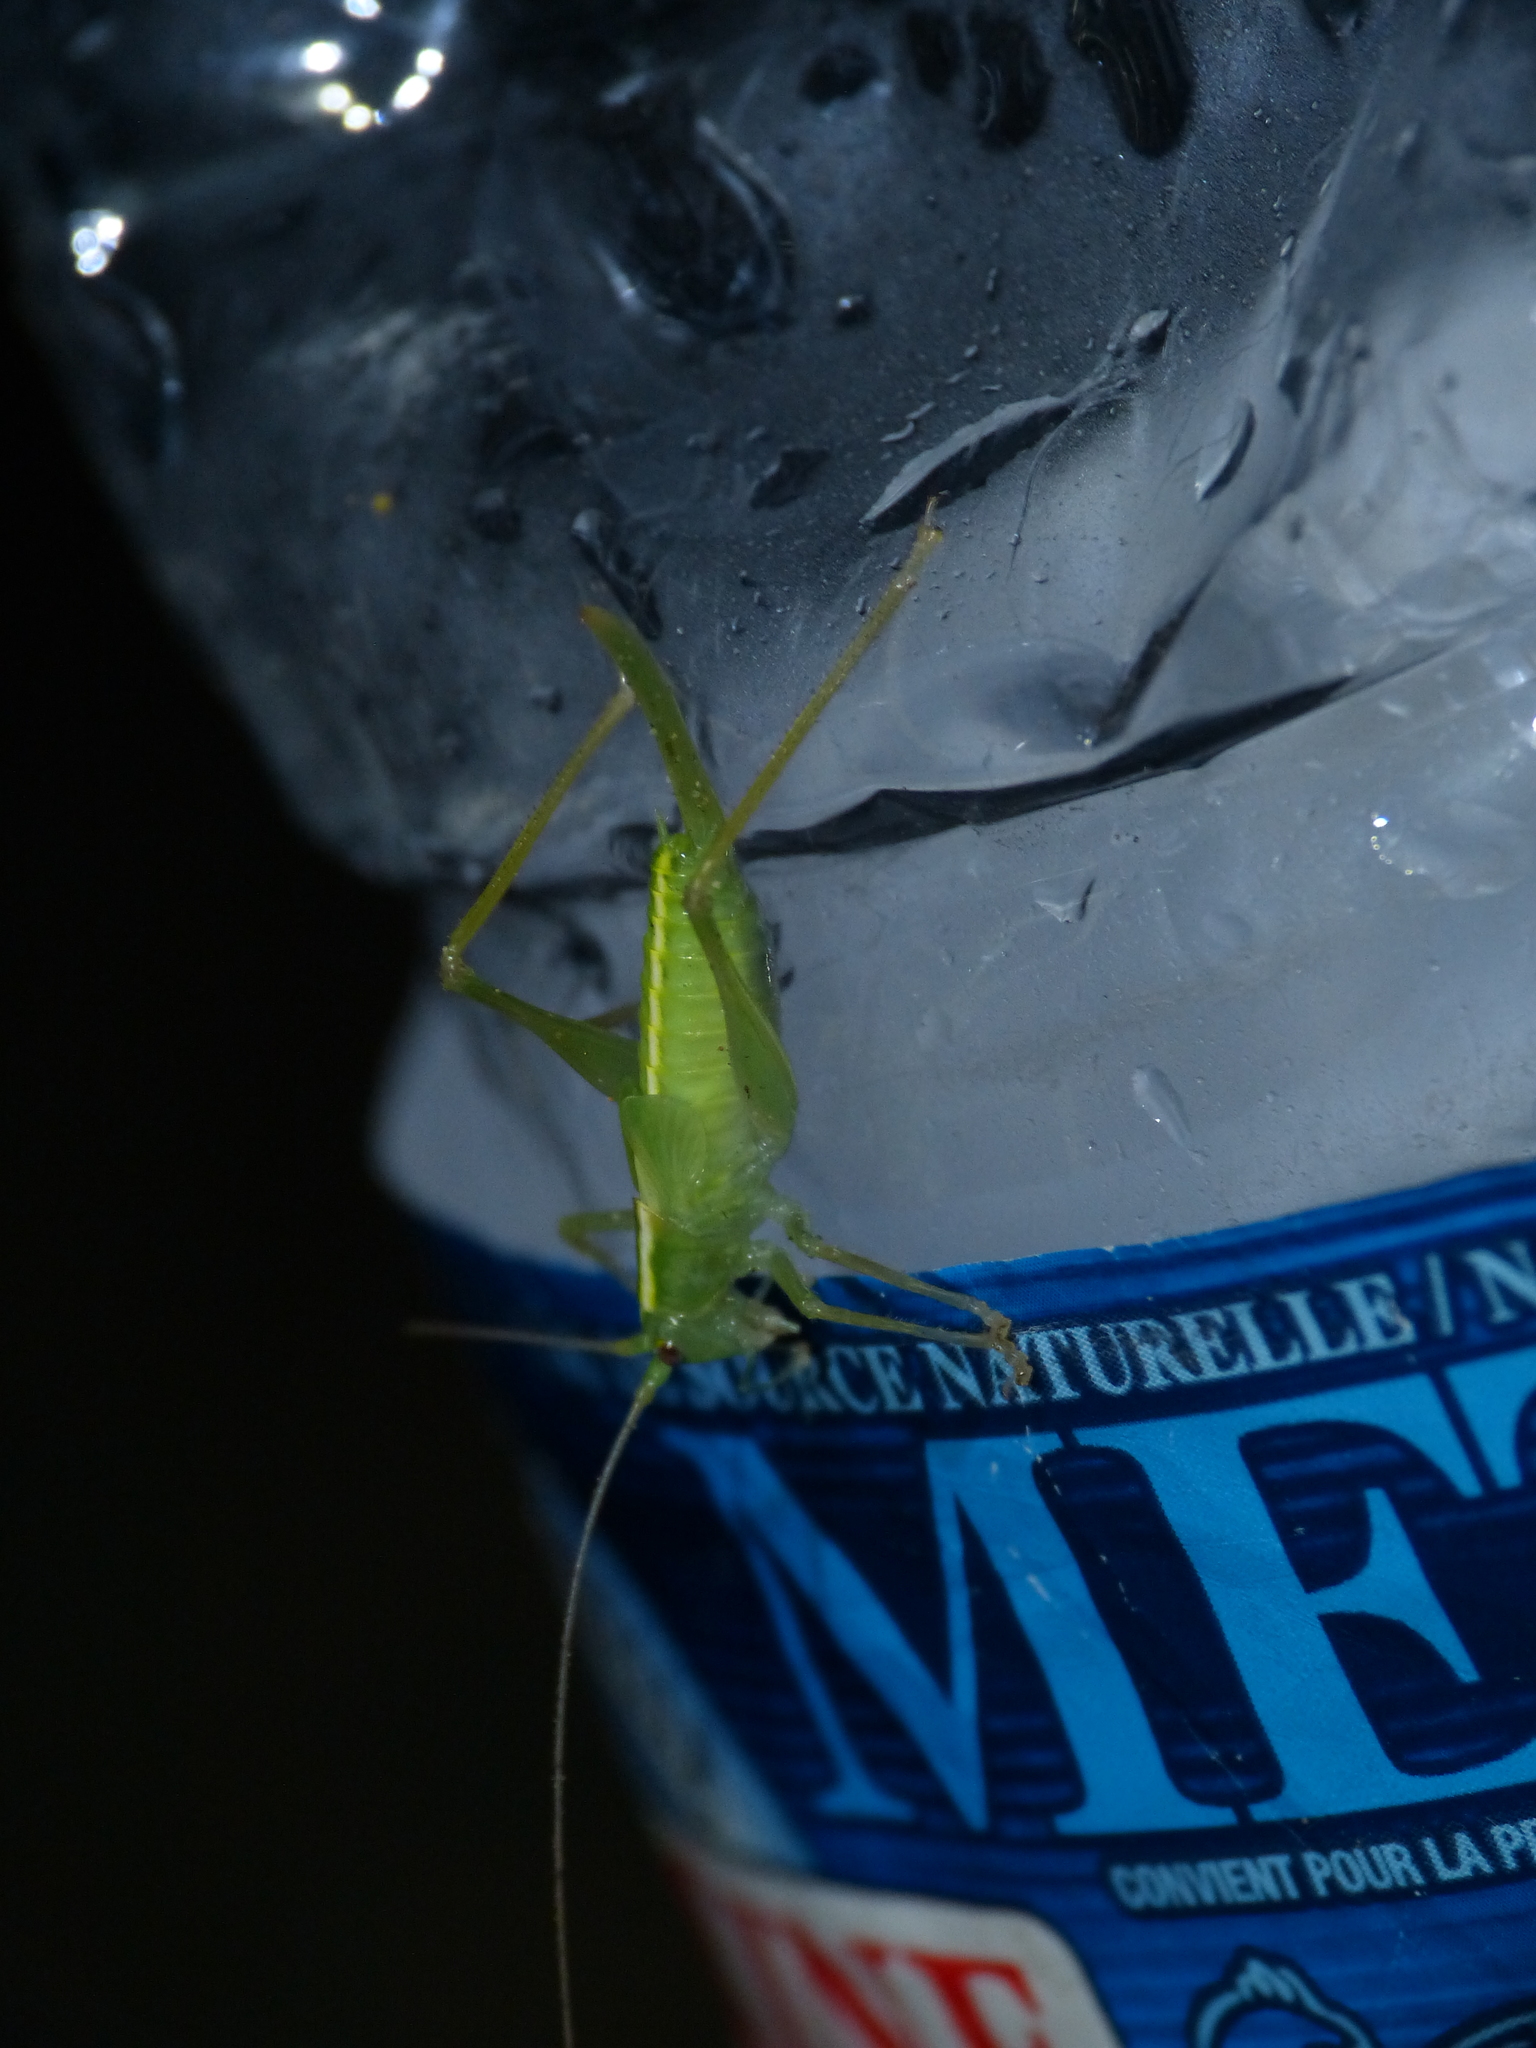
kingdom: Animalia
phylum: Arthropoda
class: Insecta
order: Orthoptera
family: Tettigoniidae
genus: Meconema
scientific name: Meconema thalassinum
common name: Oak bush-cricket
